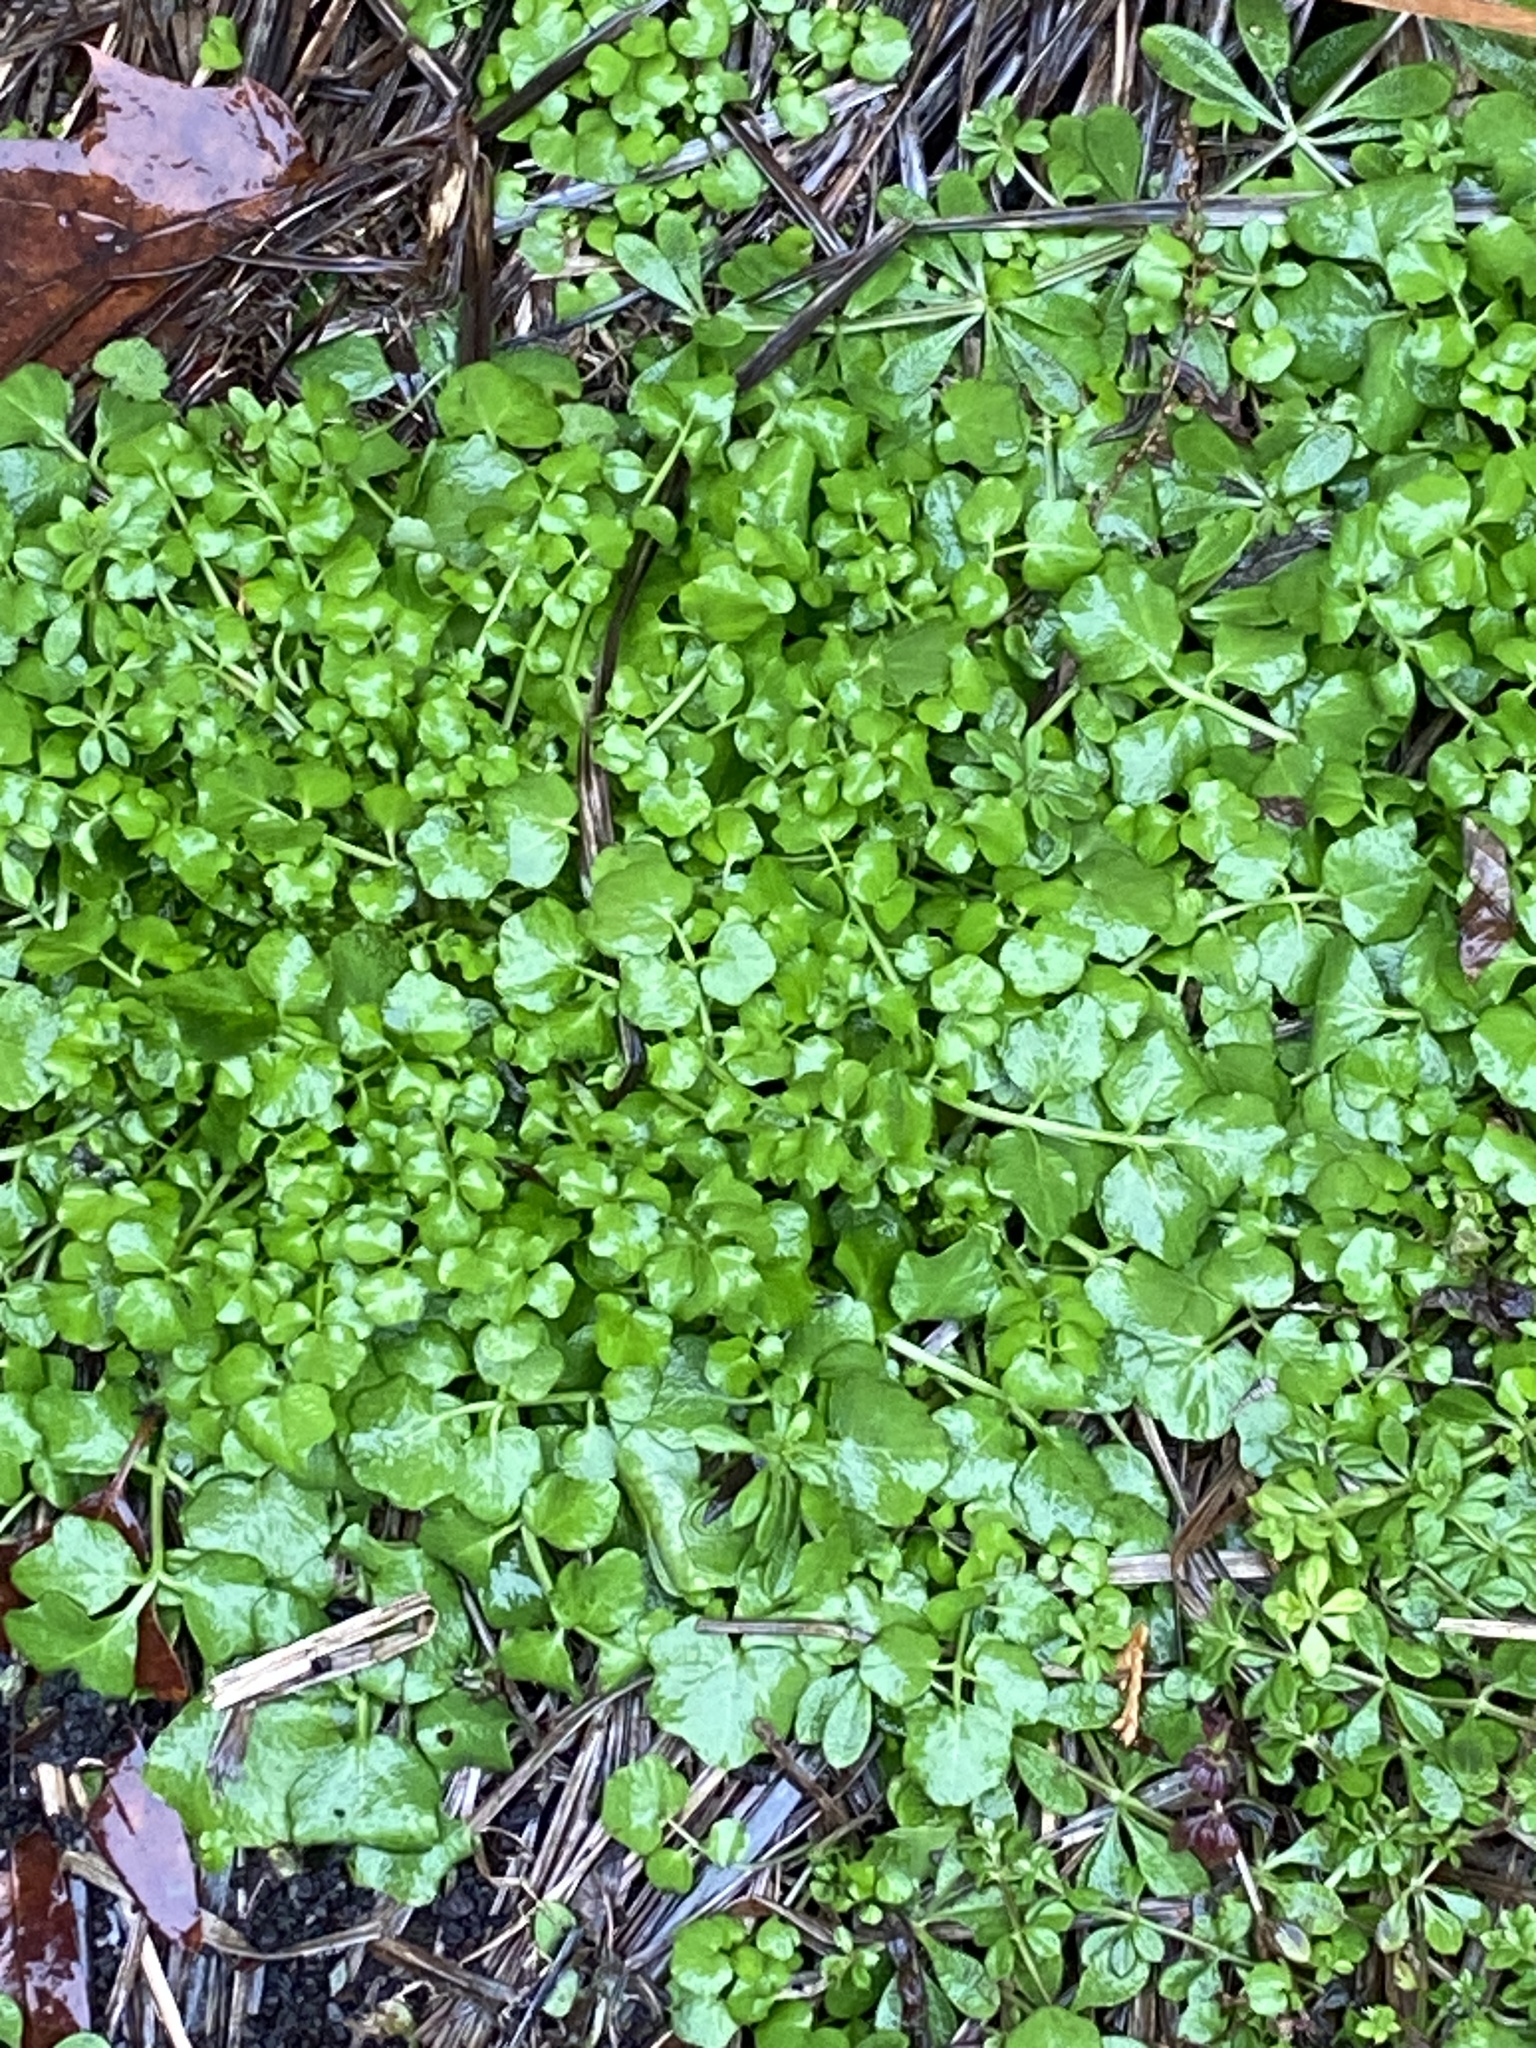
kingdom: Plantae
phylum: Tracheophyta
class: Magnoliopsida
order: Brassicales
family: Brassicaceae
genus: Cardamine
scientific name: Cardamine hirsuta
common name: Hairy bittercress
